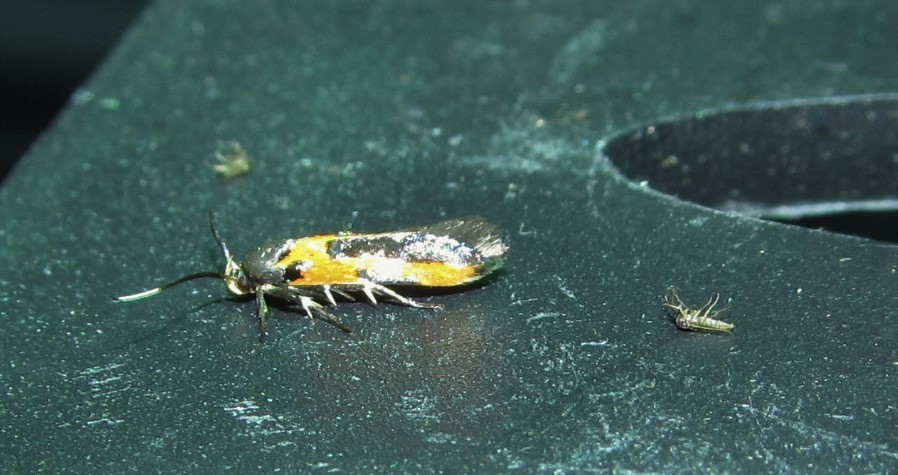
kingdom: Animalia
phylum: Arthropoda
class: Insecta
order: Lepidoptera
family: Cosmopterigidae
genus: Euclemensia
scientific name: Euclemensia bassettella
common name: Kermes scale moth
